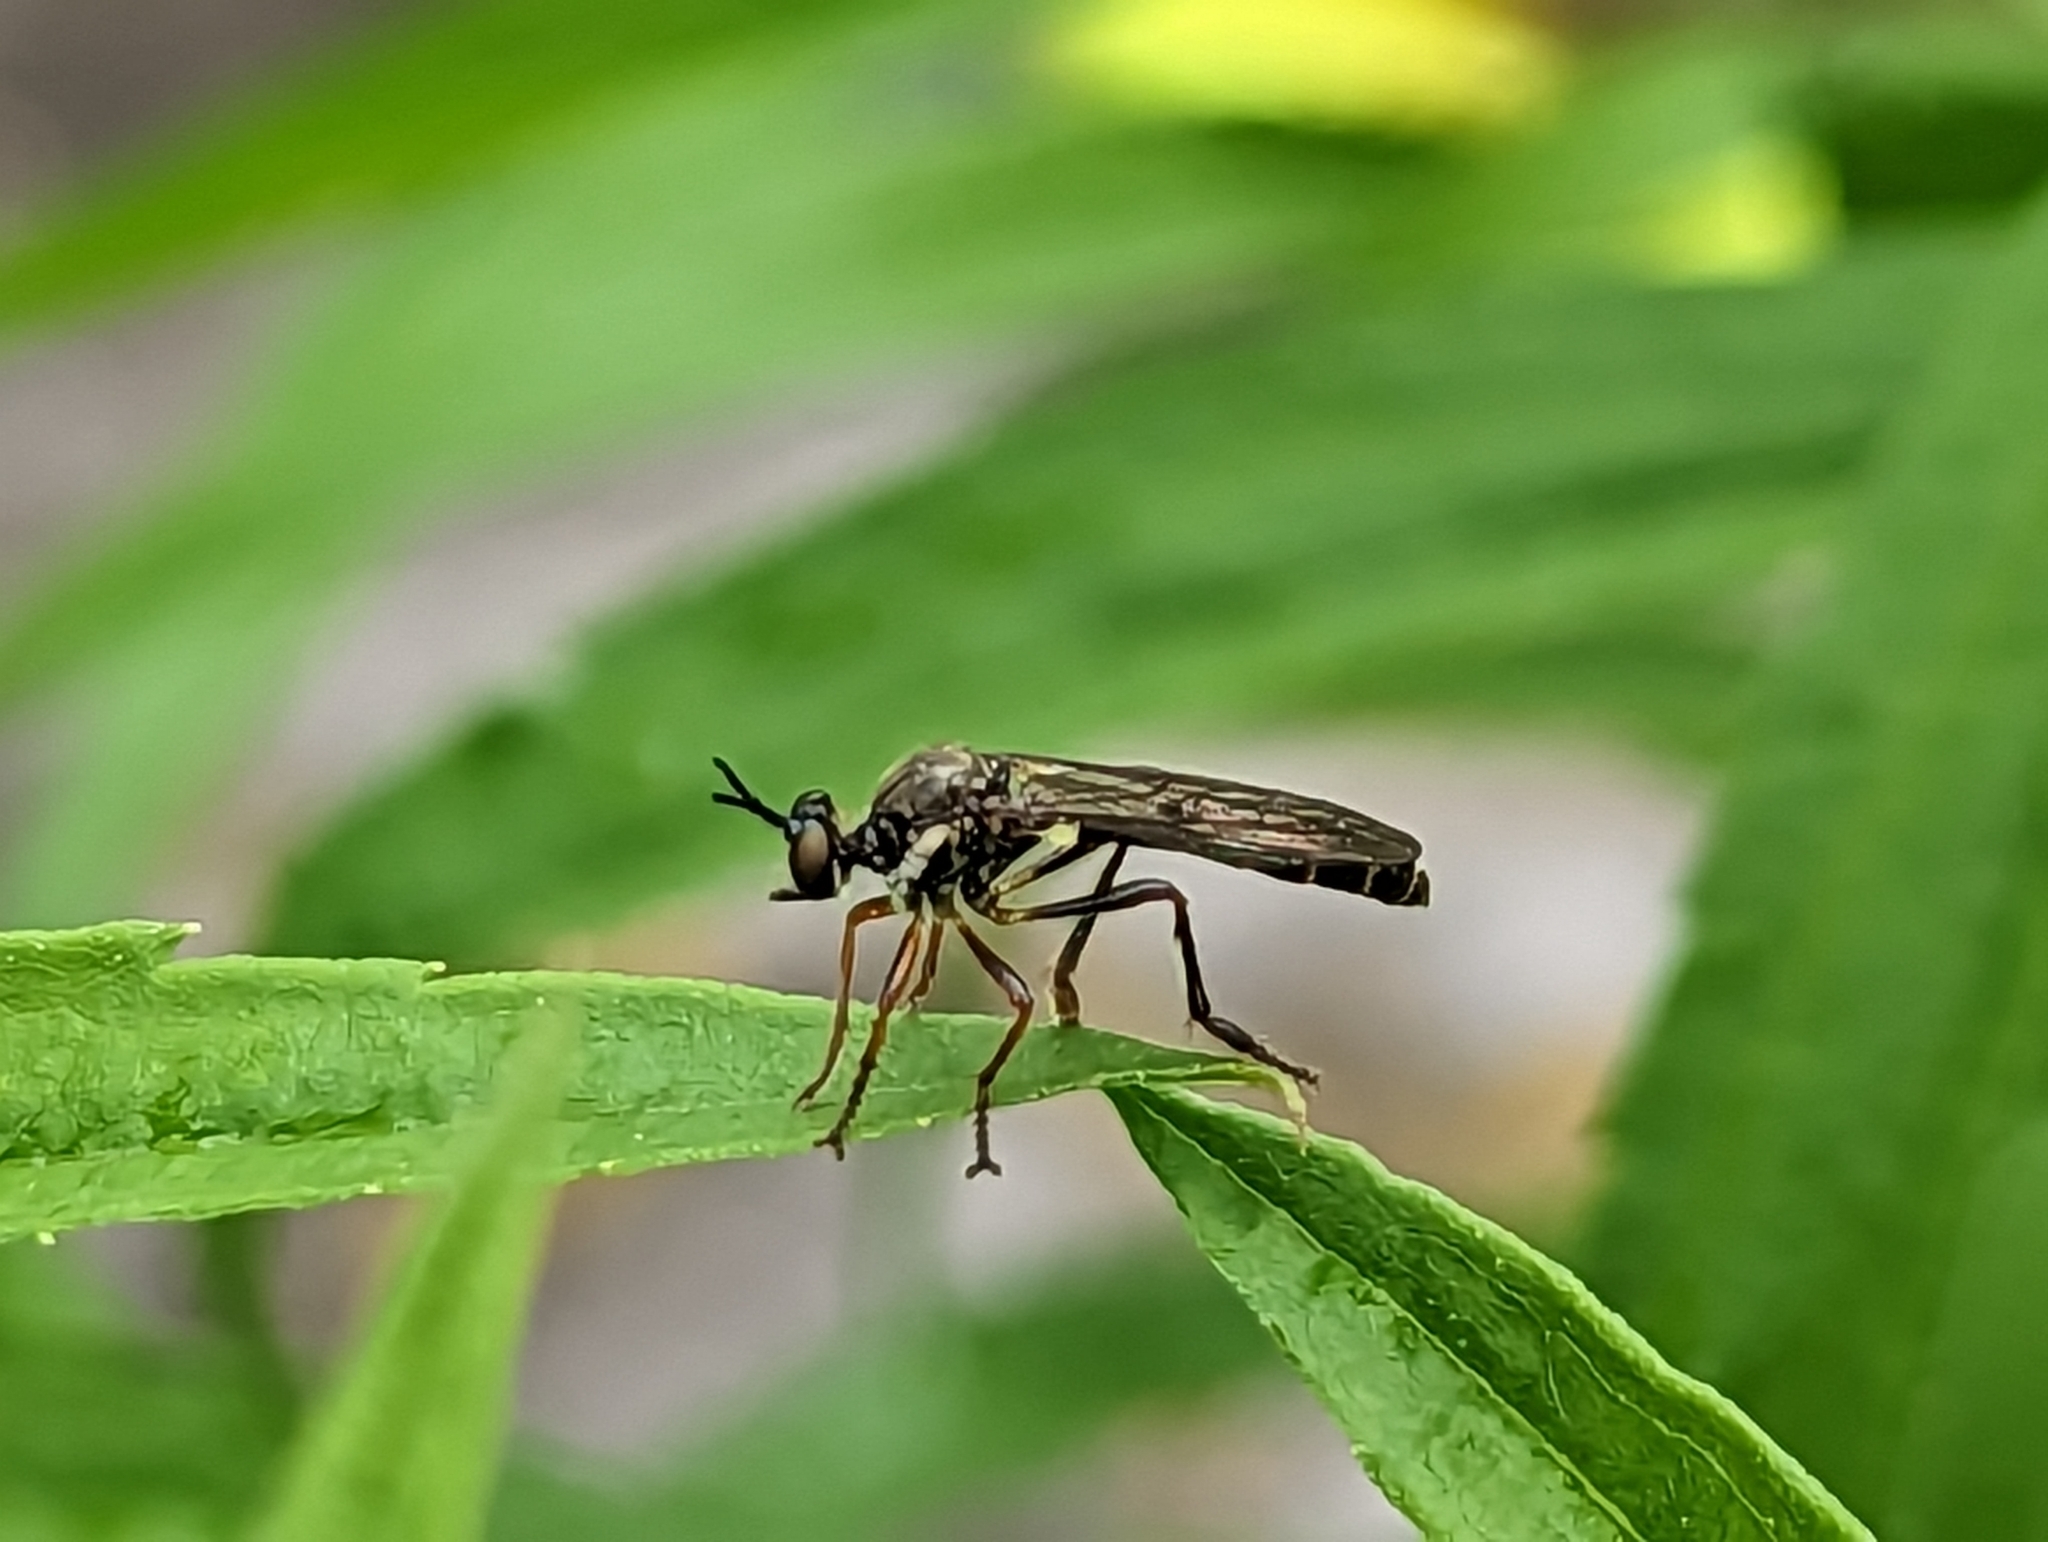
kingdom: Animalia
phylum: Arthropoda
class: Insecta
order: Diptera
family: Asilidae
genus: Dioctria
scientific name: Dioctria hyalipennis
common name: Stripe-legged robberfly
